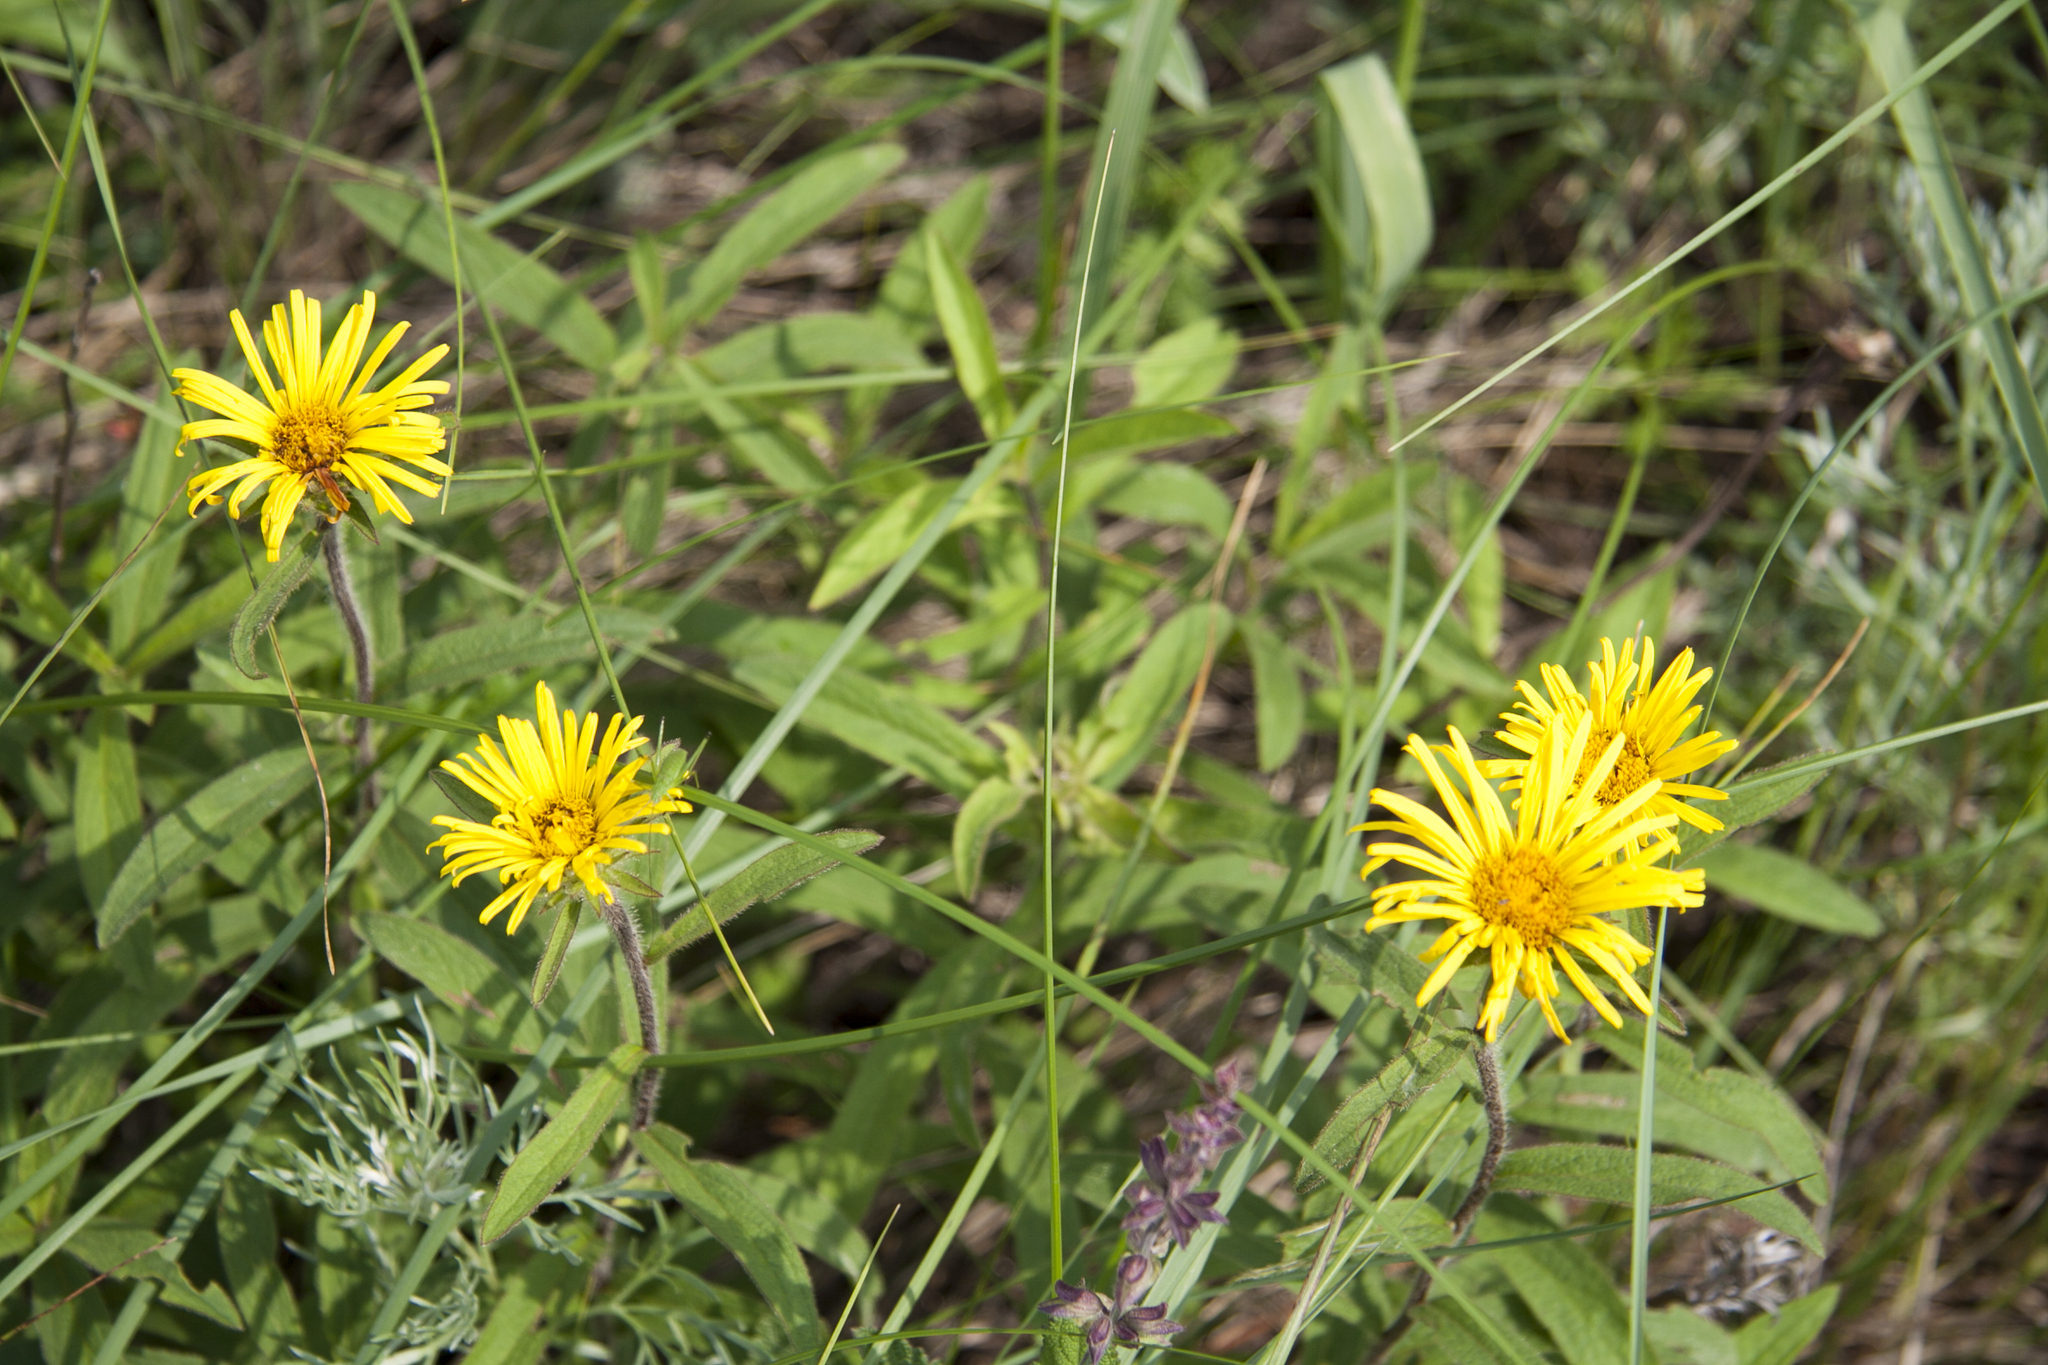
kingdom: Plantae
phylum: Tracheophyta
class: Magnoliopsida
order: Asterales
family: Asteraceae
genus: Pentanema
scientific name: Pentanema hirtum
